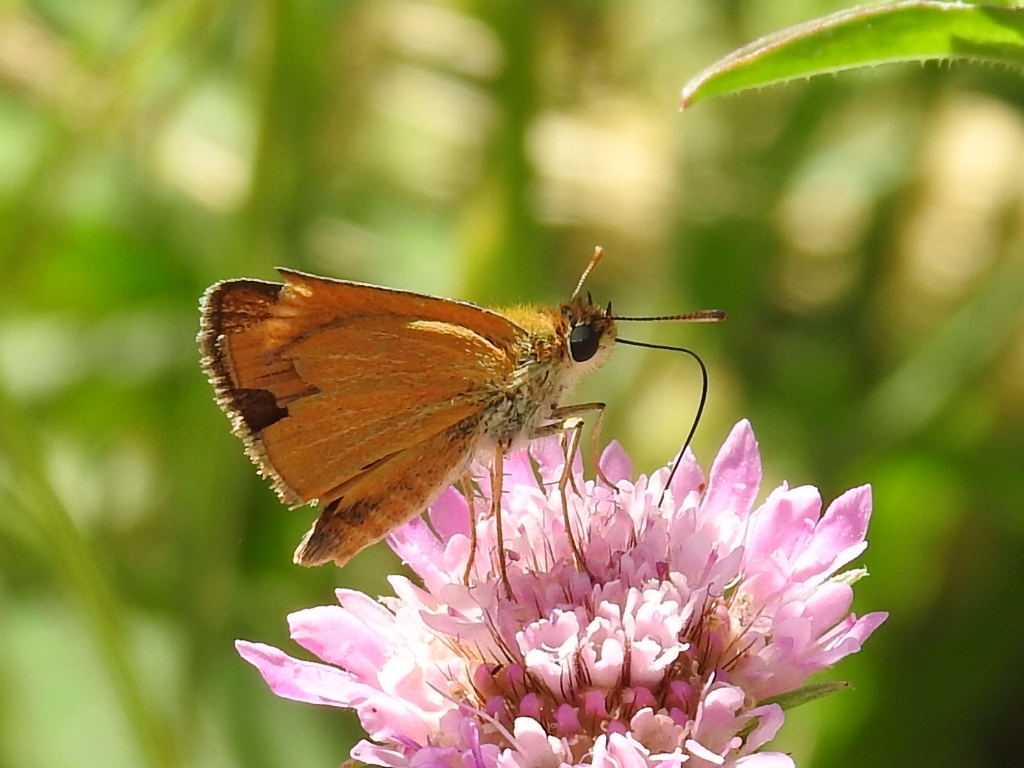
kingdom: Animalia
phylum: Arthropoda
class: Insecta
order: Lepidoptera
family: Hesperiidae
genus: Thymelicus
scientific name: Thymelicus acteon
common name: Lulworth skipper
